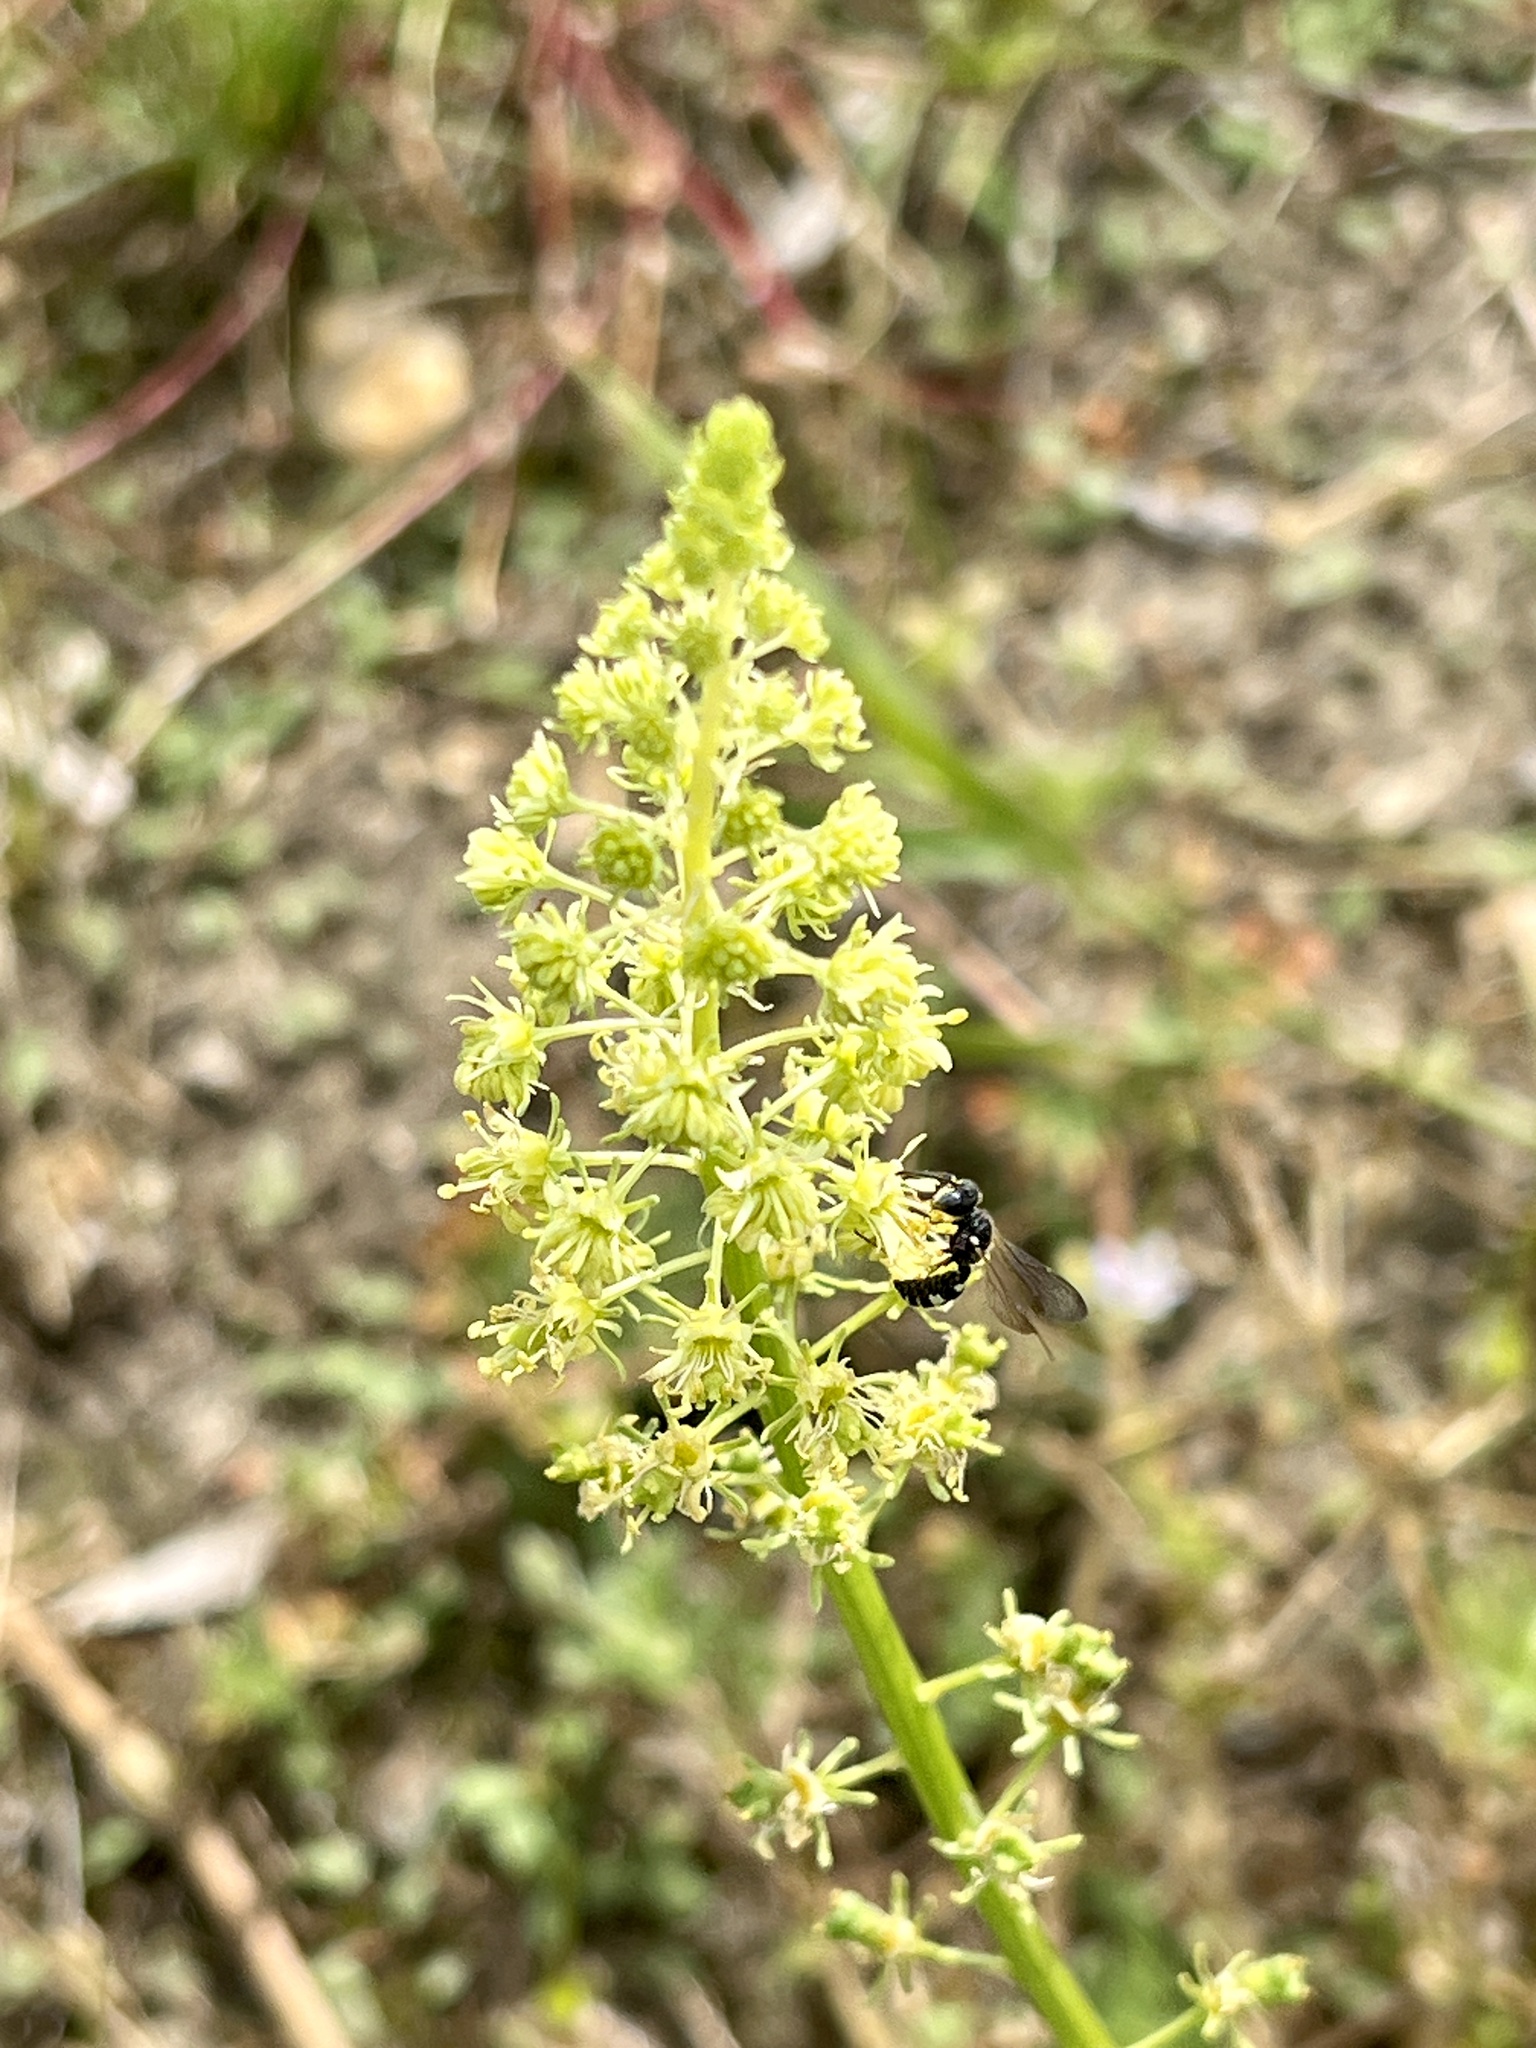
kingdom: Plantae
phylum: Tracheophyta
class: Magnoliopsida
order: Brassicales
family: Resedaceae
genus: Reseda
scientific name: Reseda lutea
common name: Wild mignonette
